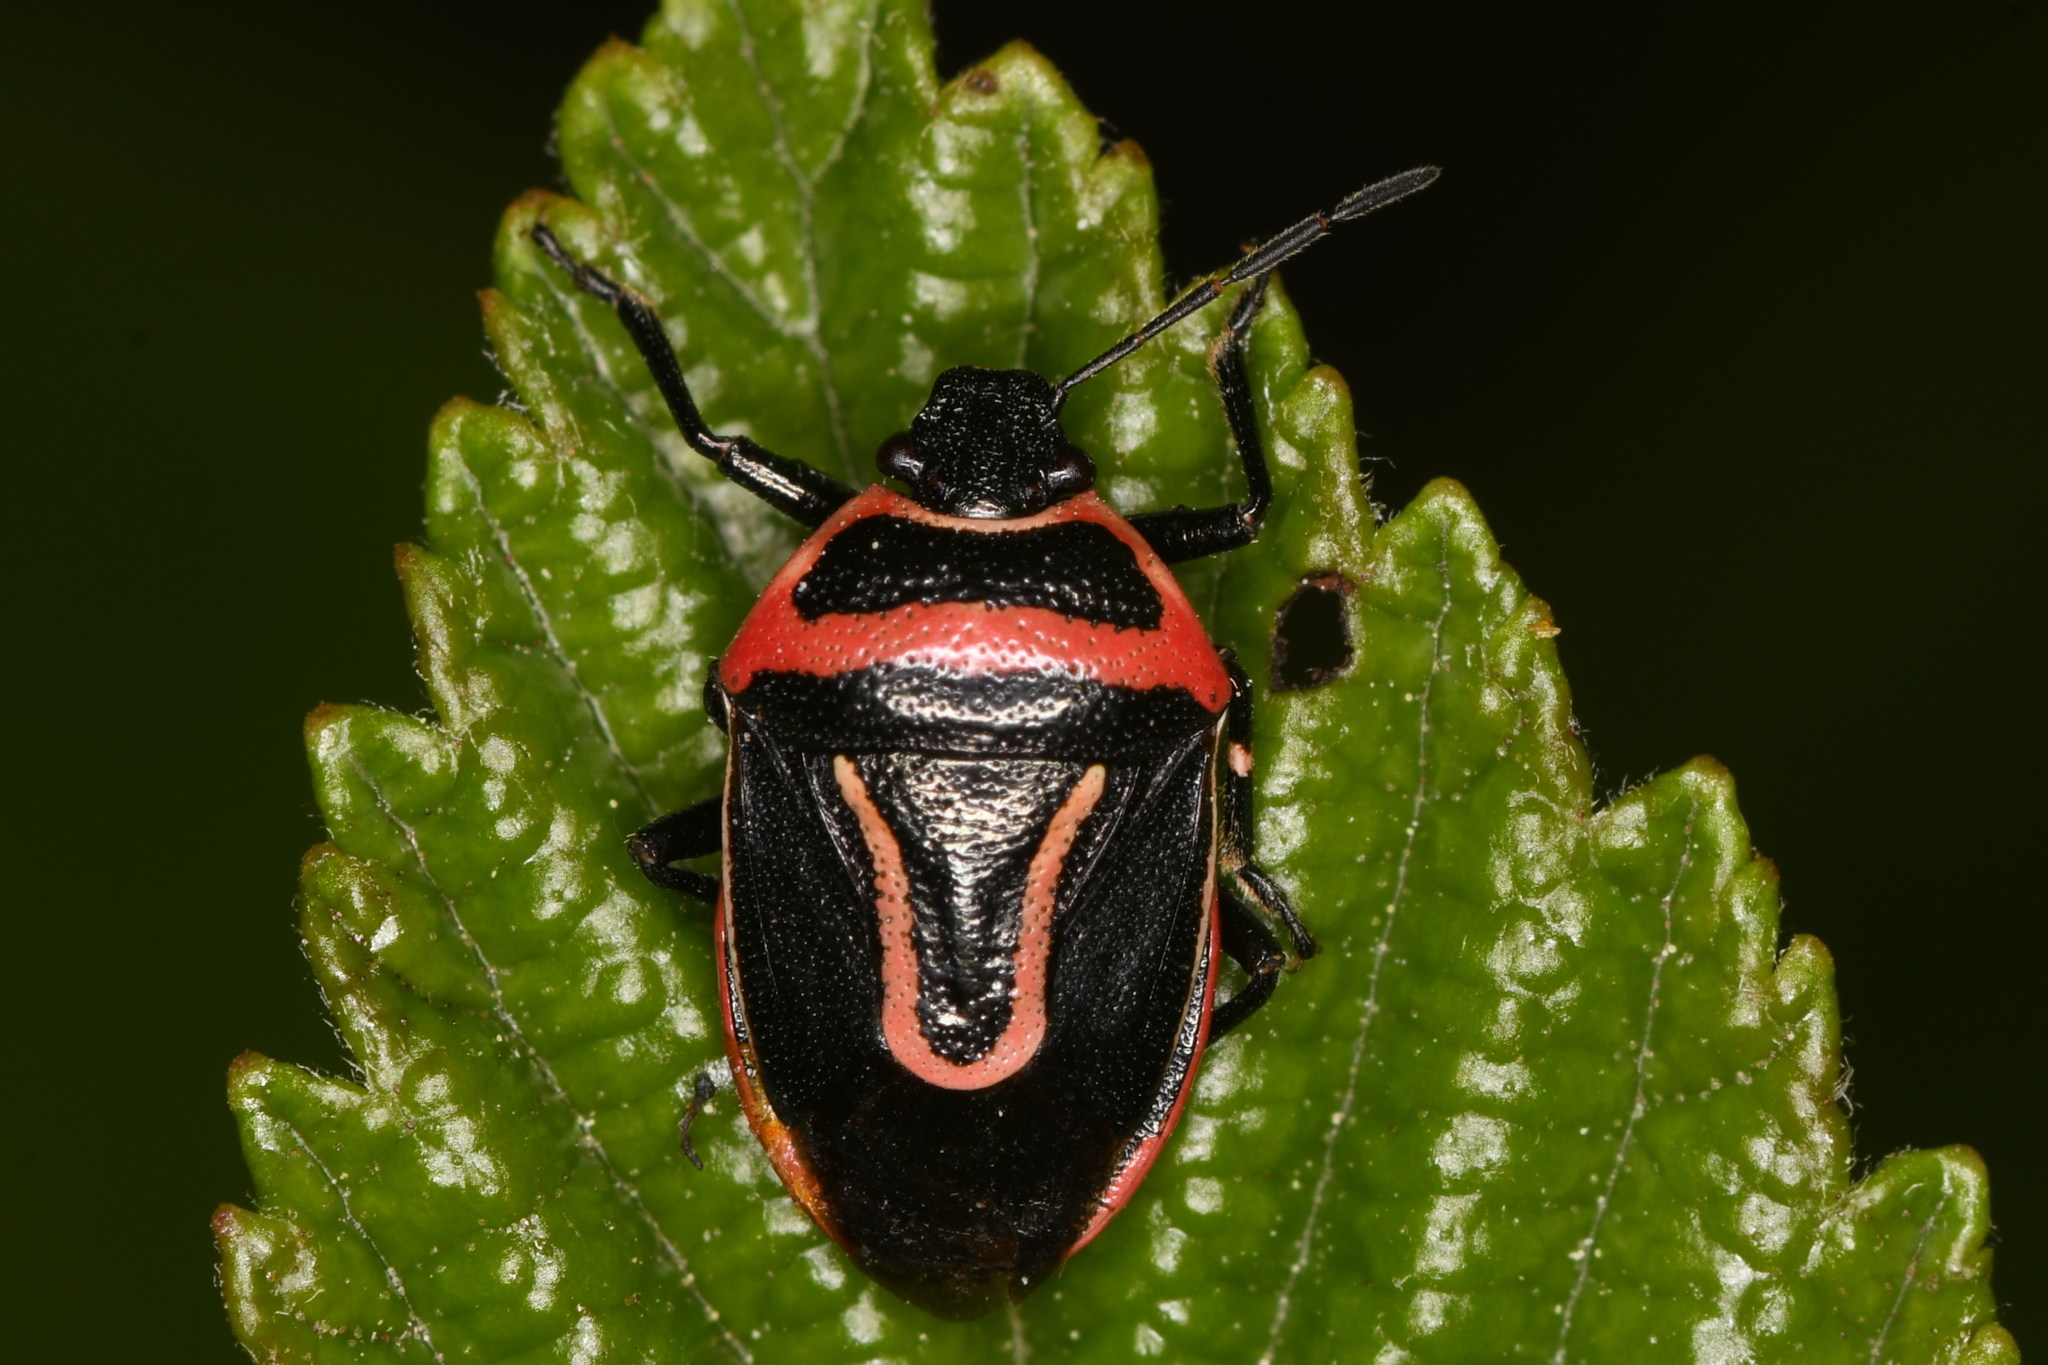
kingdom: Animalia
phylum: Arthropoda
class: Insecta
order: Hemiptera
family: Pentatomidae
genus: Perillus
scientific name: Perillus exaptus
